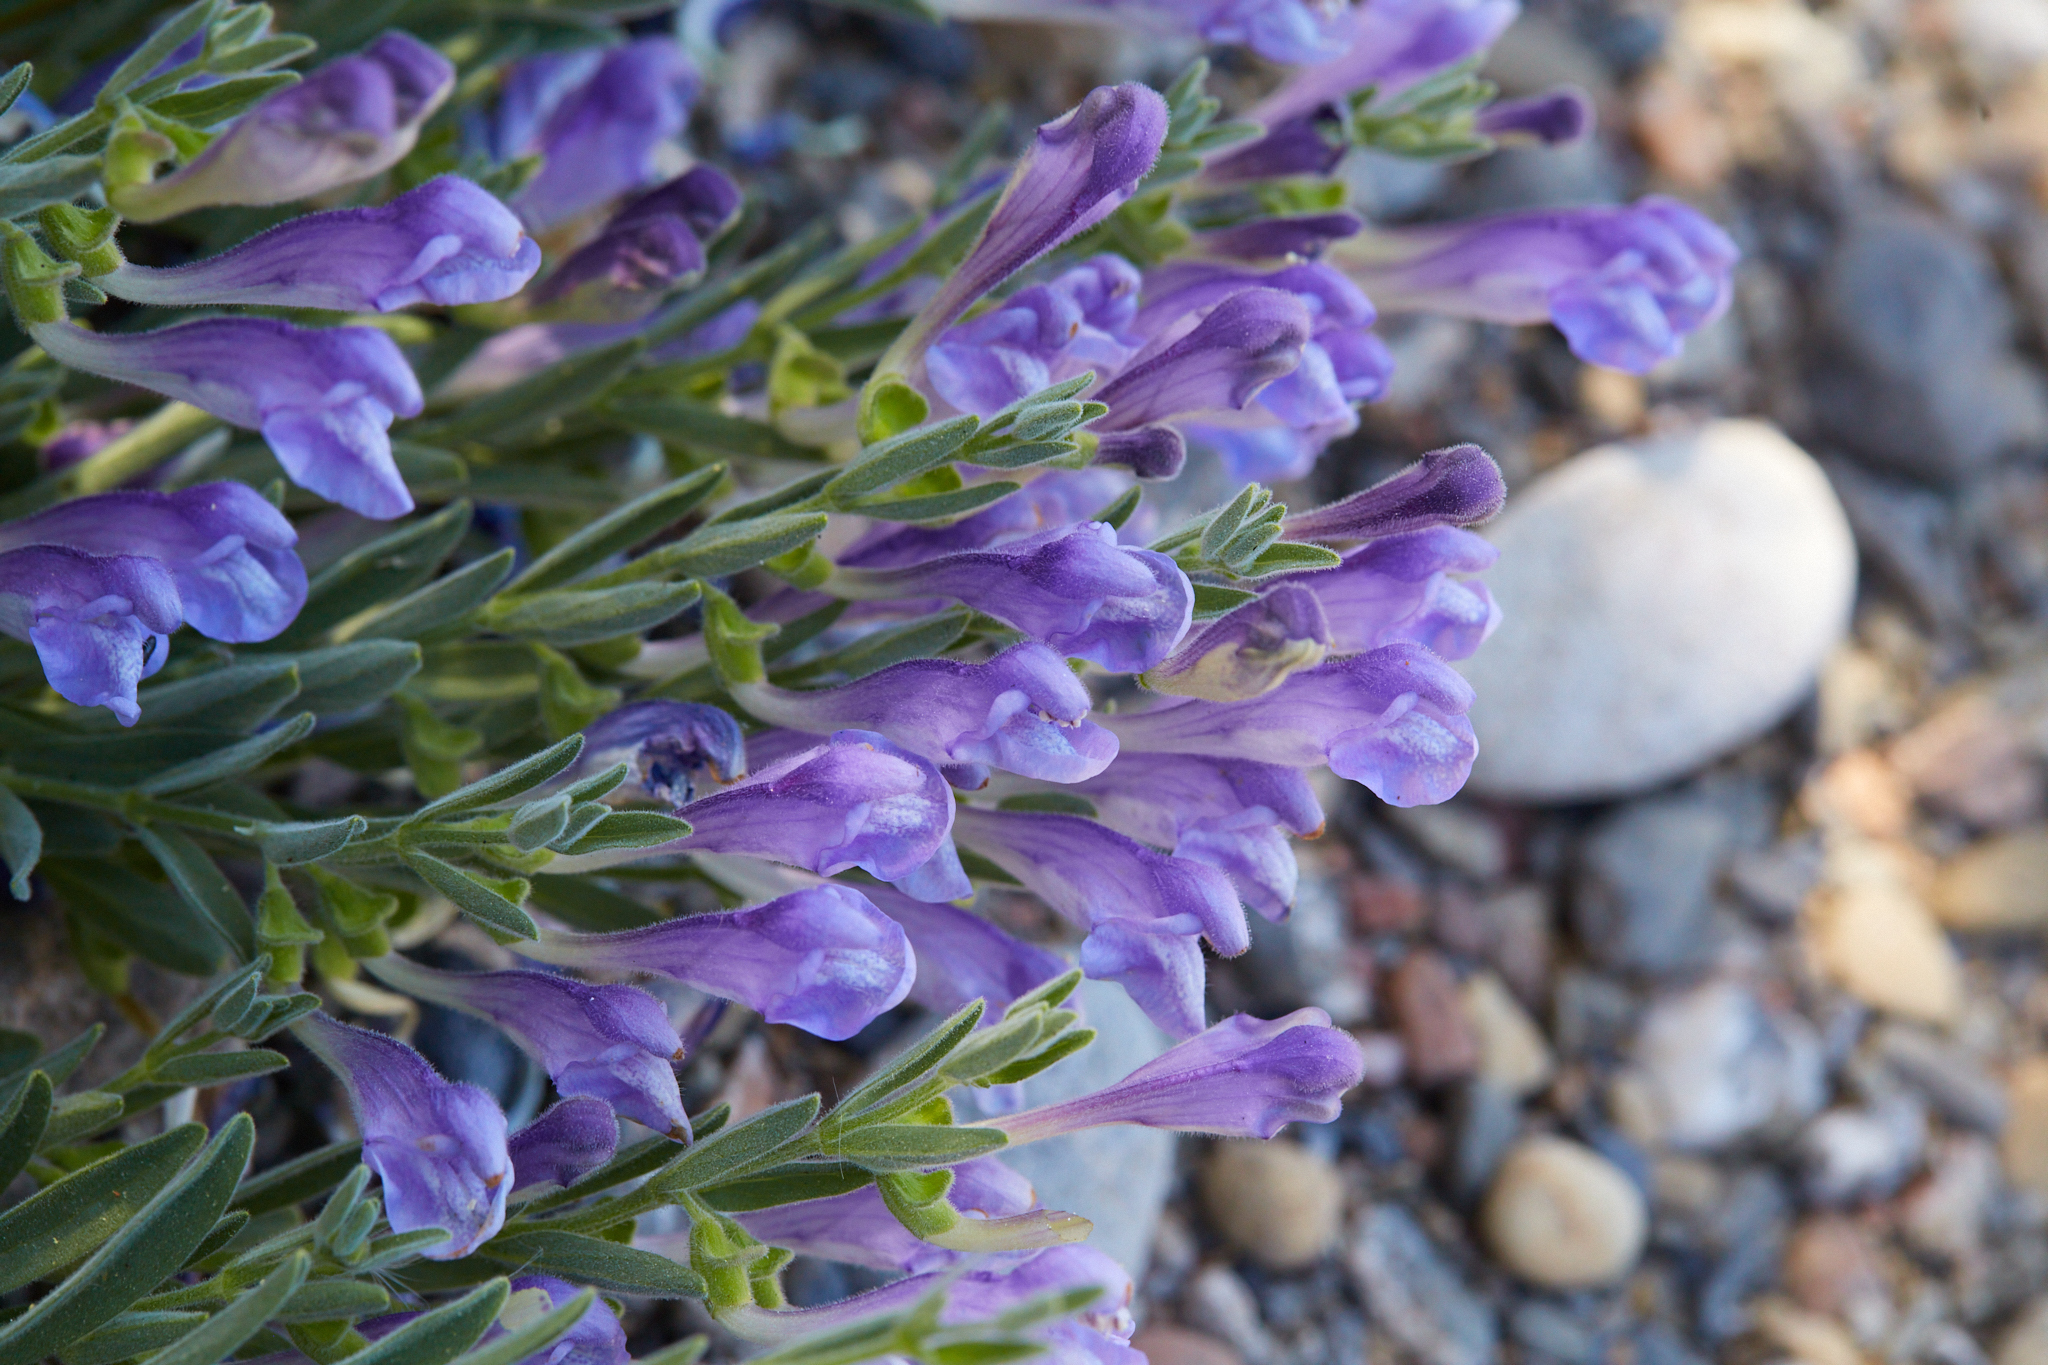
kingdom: Plantae
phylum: Tracheophyta
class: Magnoliopsida
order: Lamiales
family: Lamiaceae
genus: Scutellaria
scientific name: Scutellaria siphocampyloides
